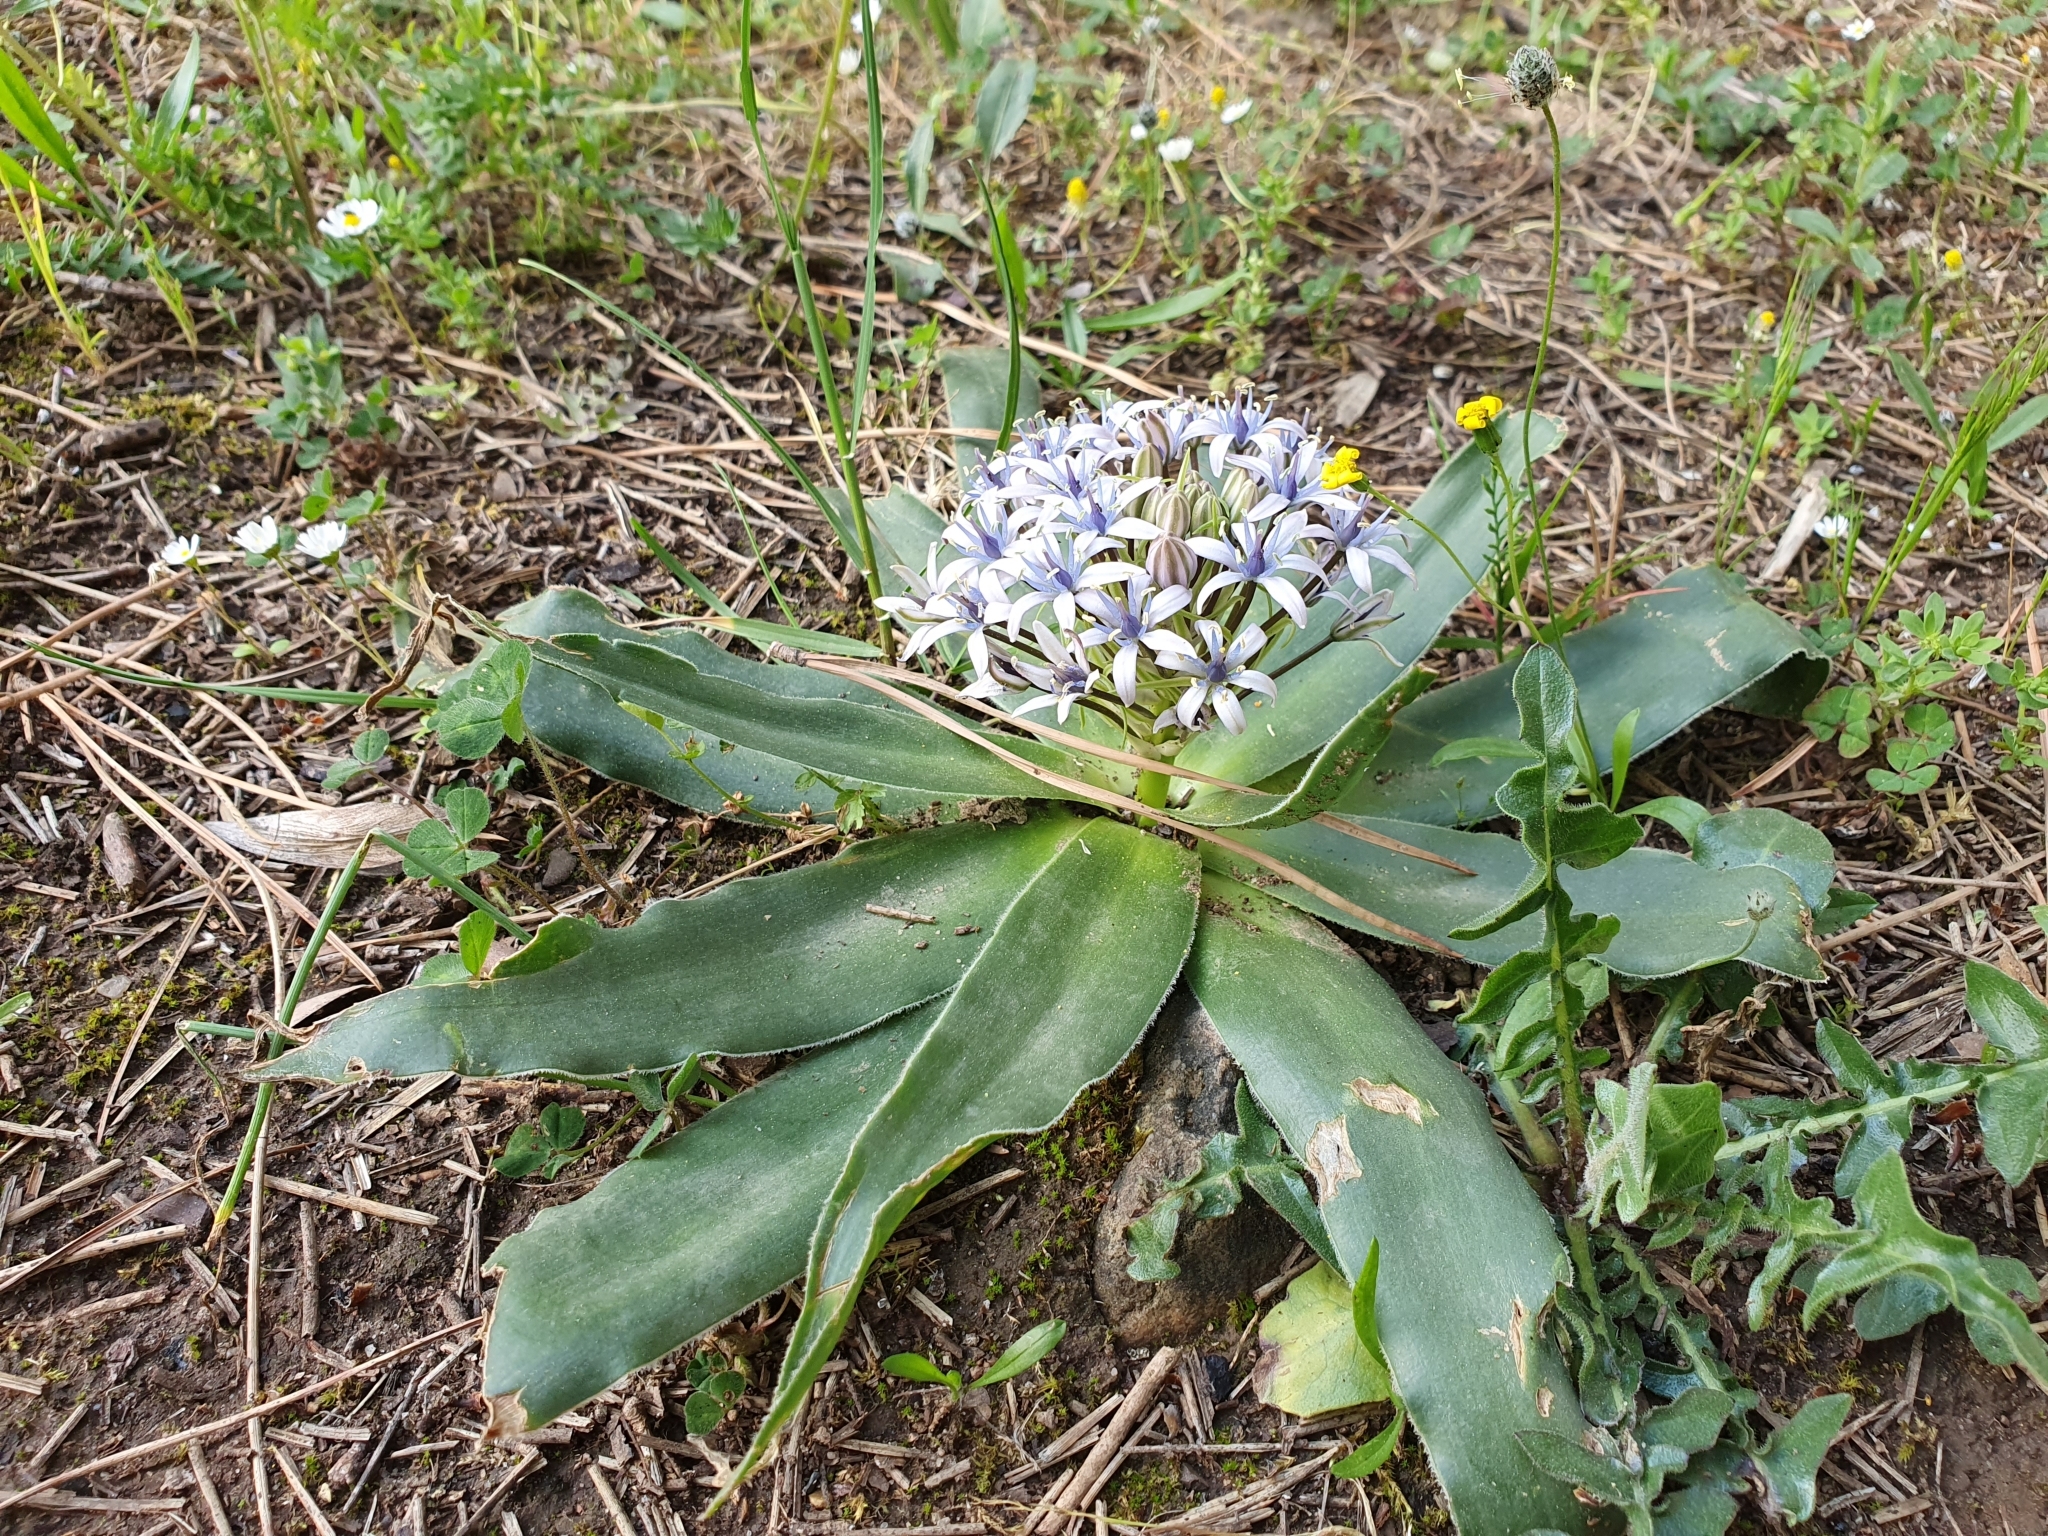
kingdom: Plantae
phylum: Tracheophyta
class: Liliopsida
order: Asparagales
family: Asparagaceae
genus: Scilla
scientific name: Scilla peruviana
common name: Portuguese squill
